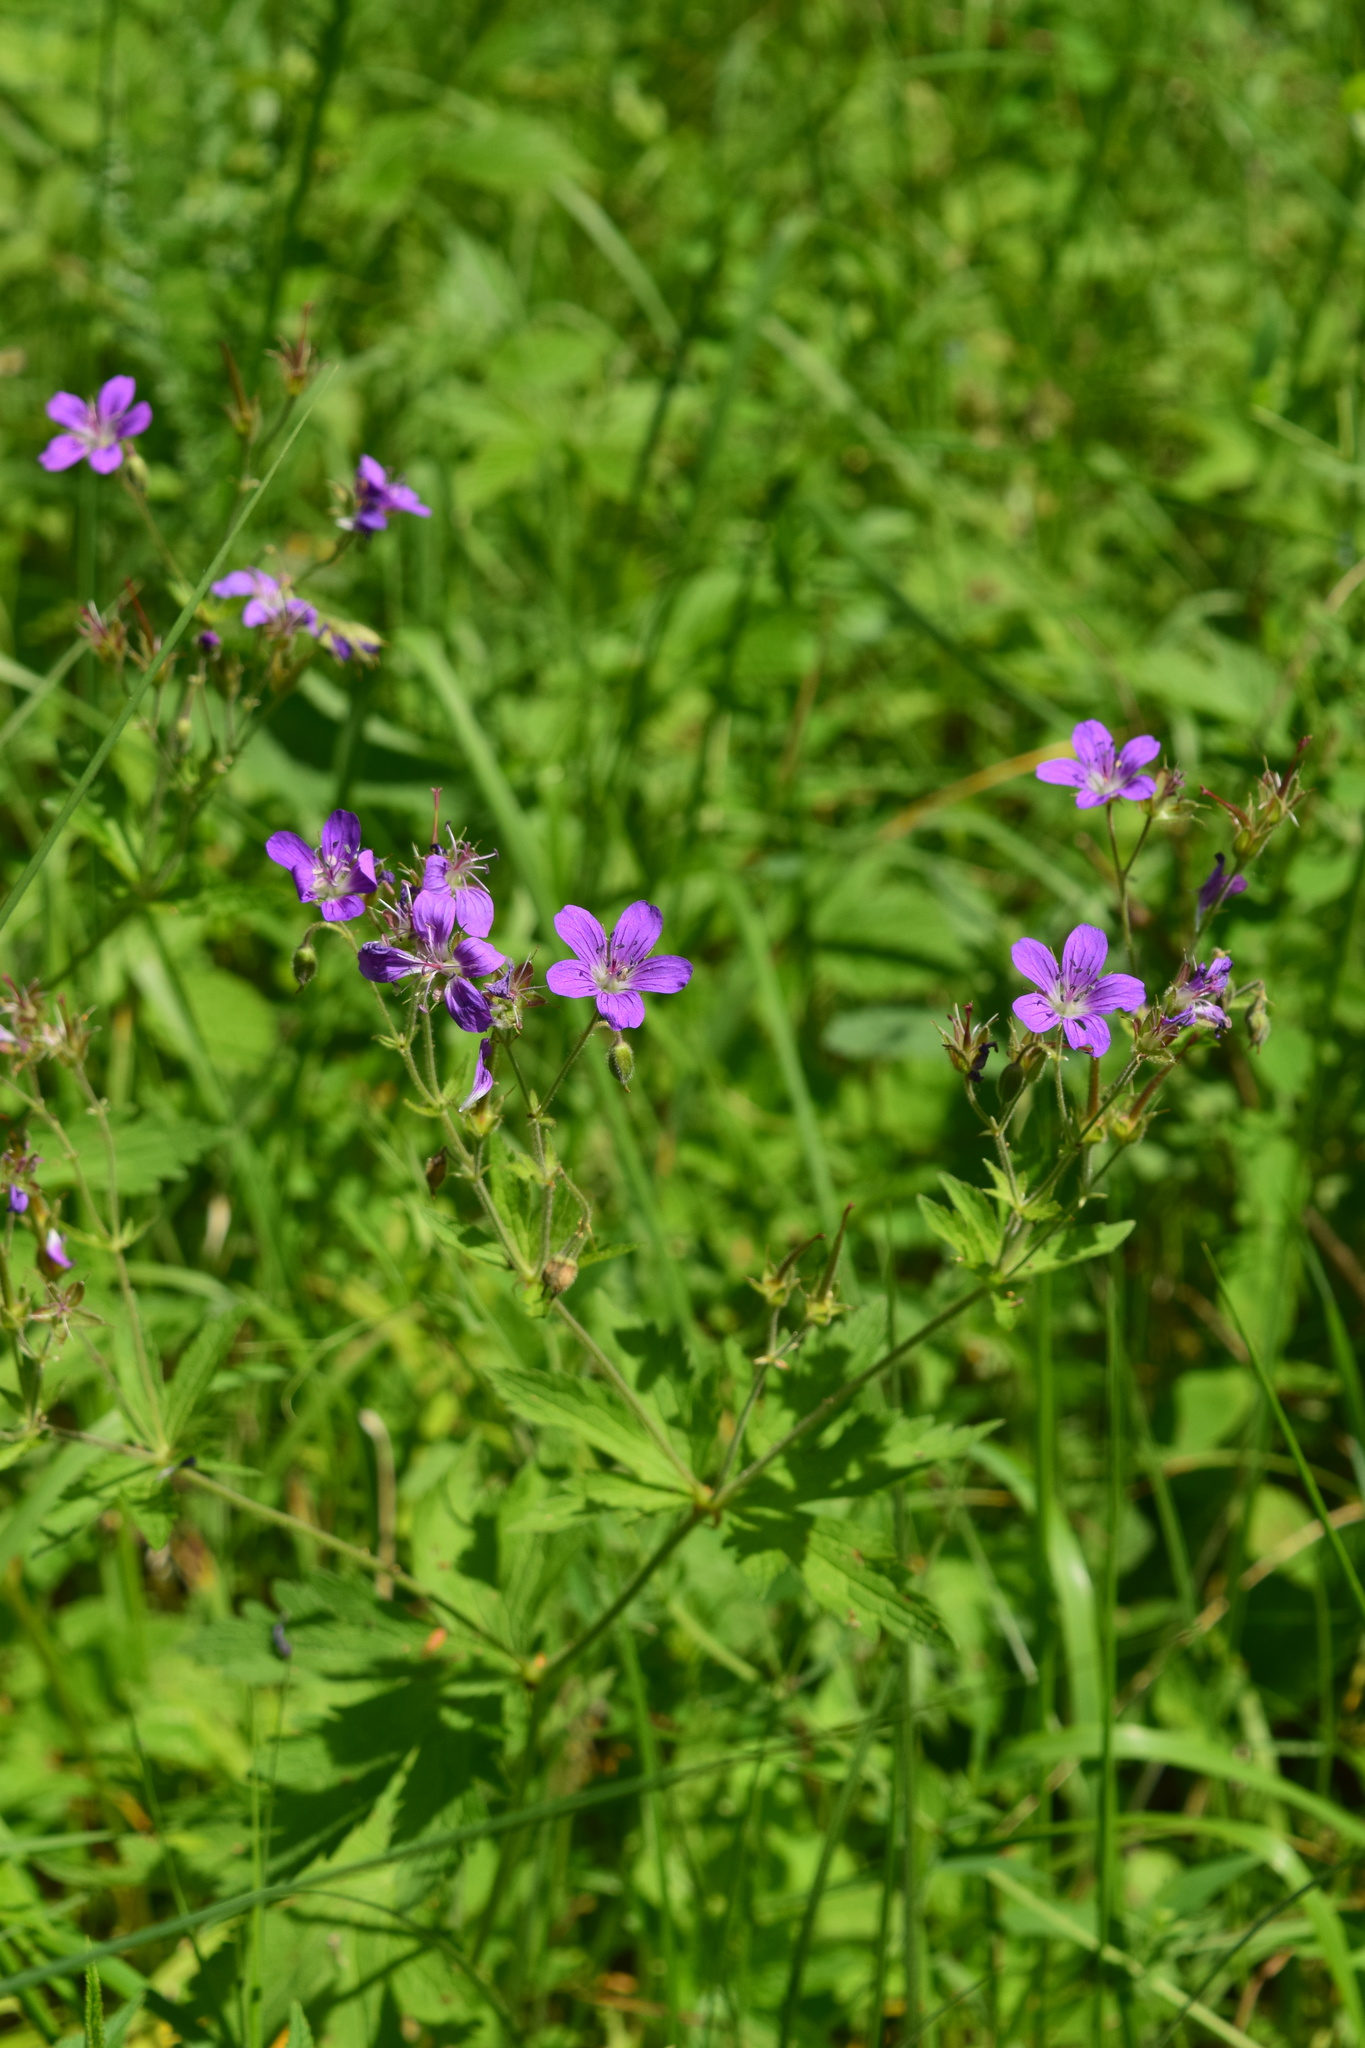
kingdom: Plantae
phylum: Tracheophyta
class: Magnoliopsida
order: Geraniales
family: Geraniaceae
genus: Geranium
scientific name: Geranium sylvaticum
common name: Wood crane's-bill
